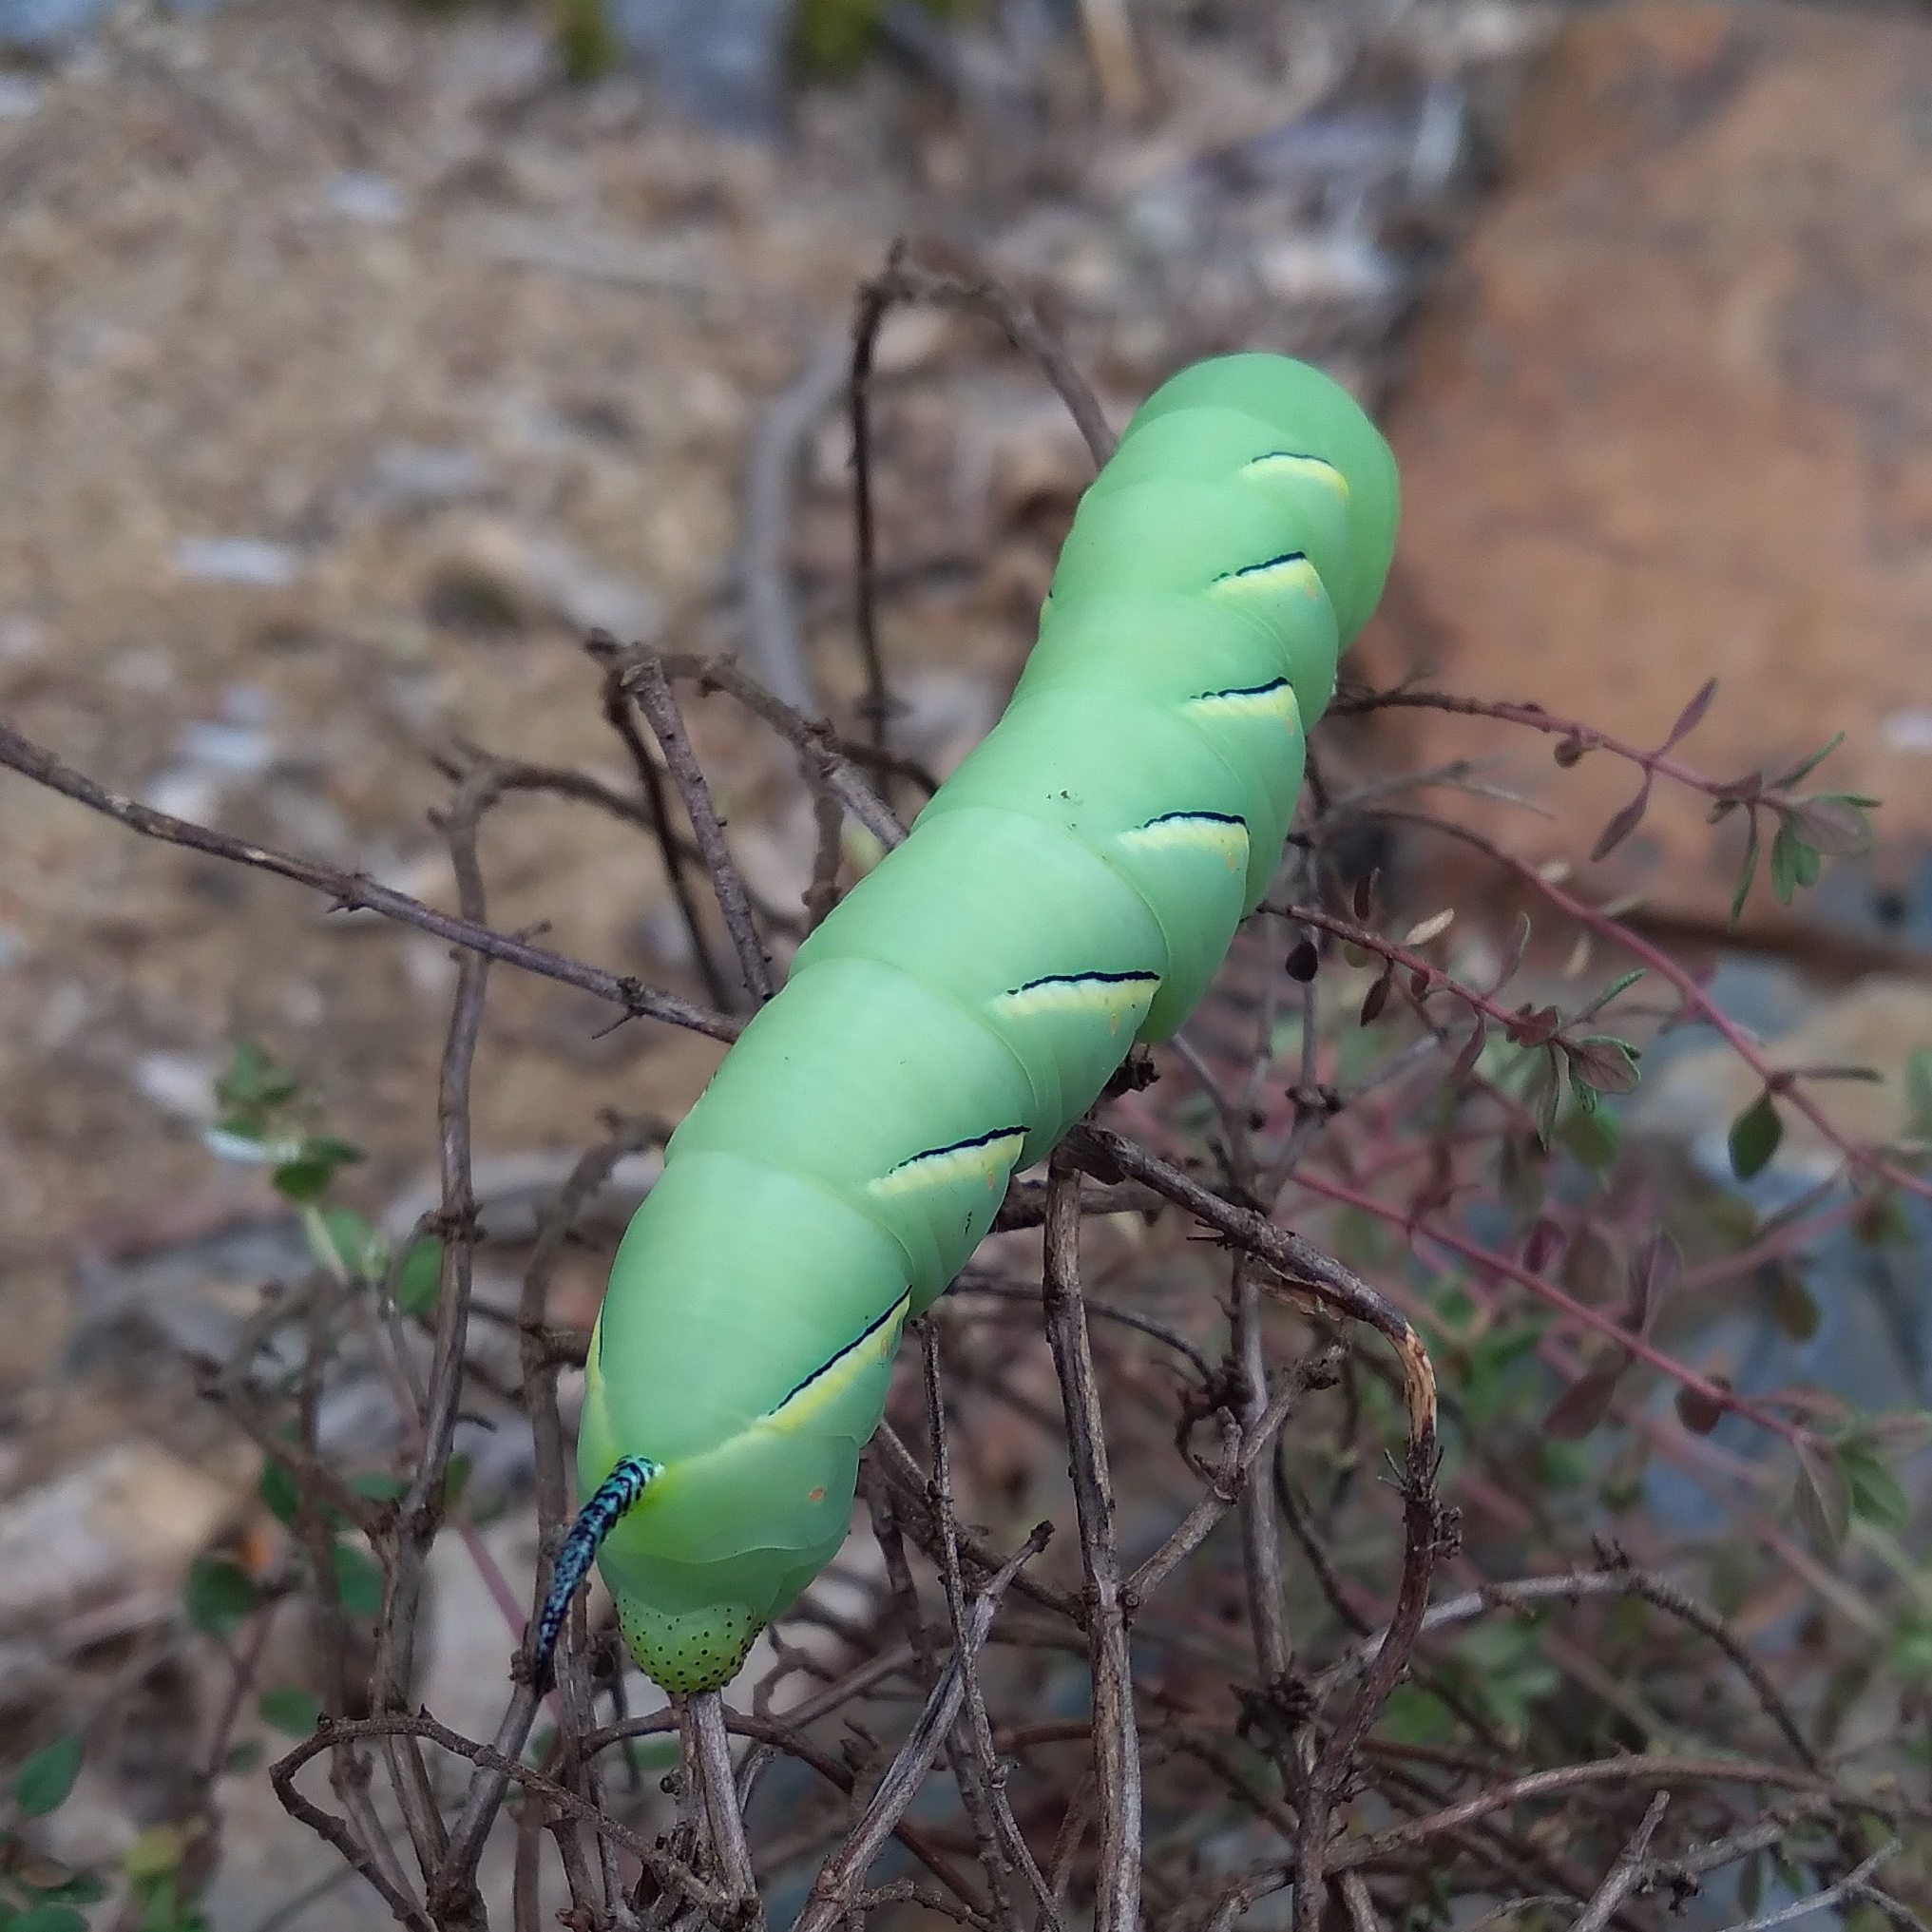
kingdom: Animalia
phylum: Arthropoda
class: Insecta
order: Lepidoptera
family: Sphingidae
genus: Sphinx
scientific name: Sphinx kalmiae
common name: Laurel sphinx
